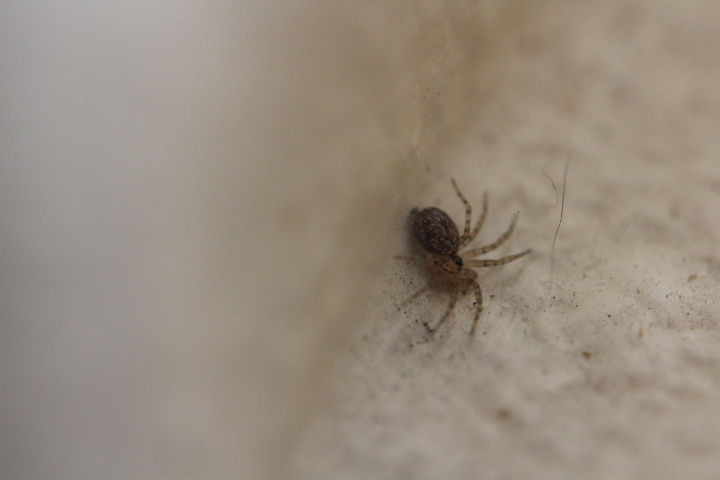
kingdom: Animalia
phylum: Arthropoda
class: Arachnida
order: Araneae
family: Oecobiidae
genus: Oecobius
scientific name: Oecobius navus
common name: Flatmesh weaver
